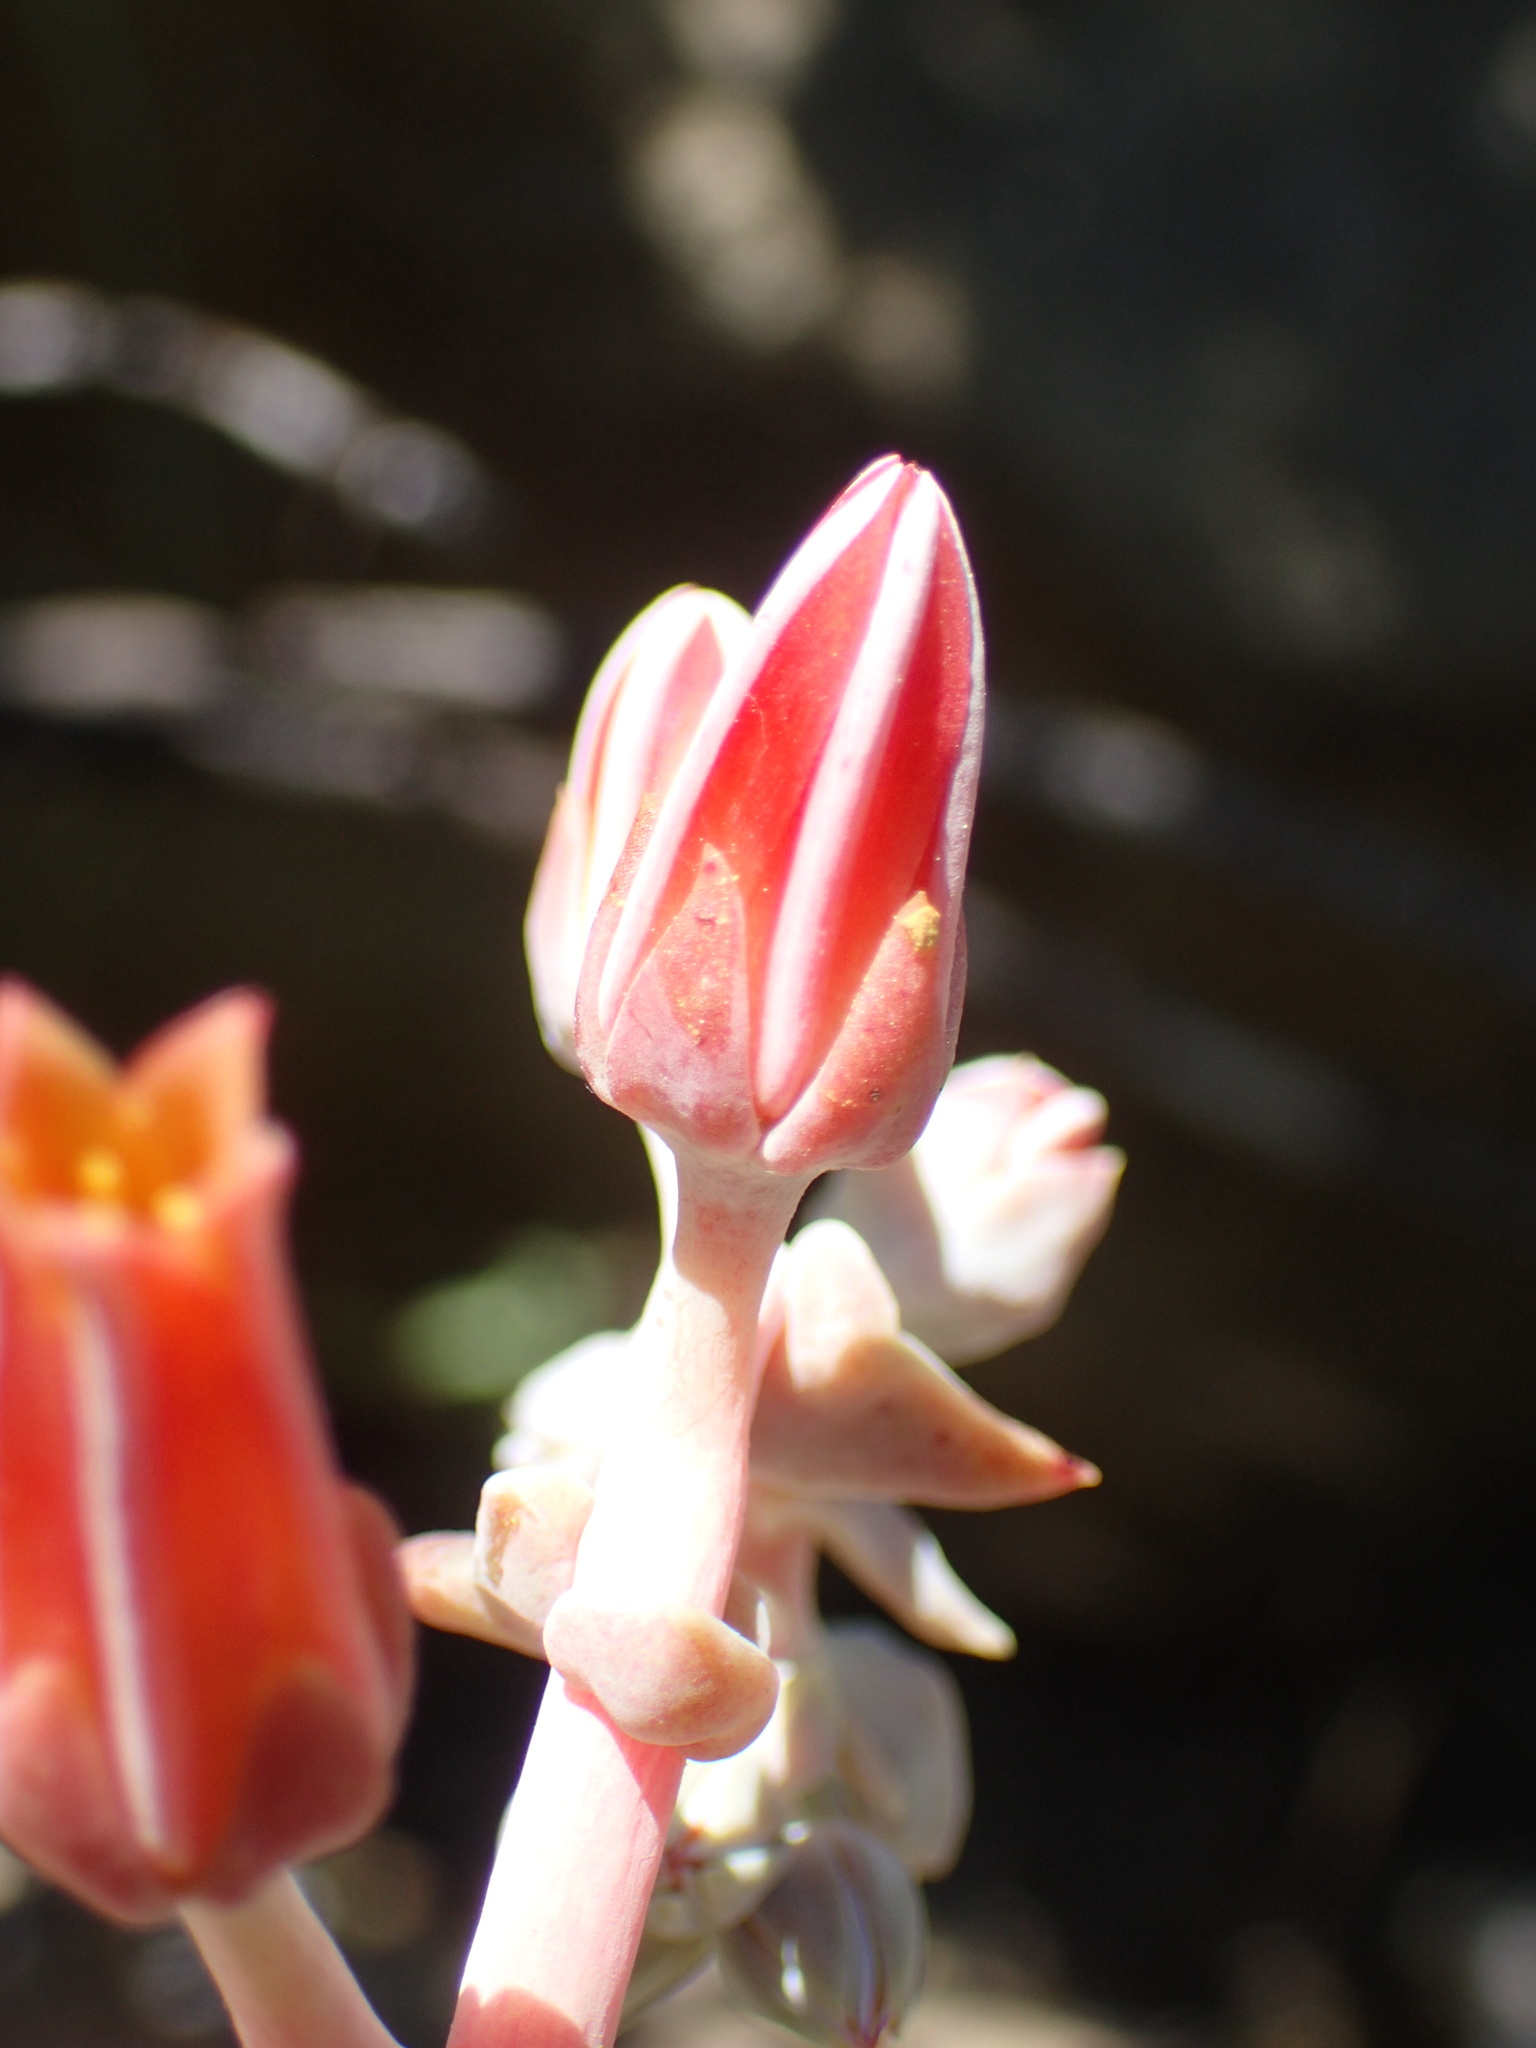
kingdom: Plantae
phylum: Tracheophyta
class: Magnoliopsida
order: Saxifragales
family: Crassulaceae
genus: Dudleya
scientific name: Dudleya lanceolata
